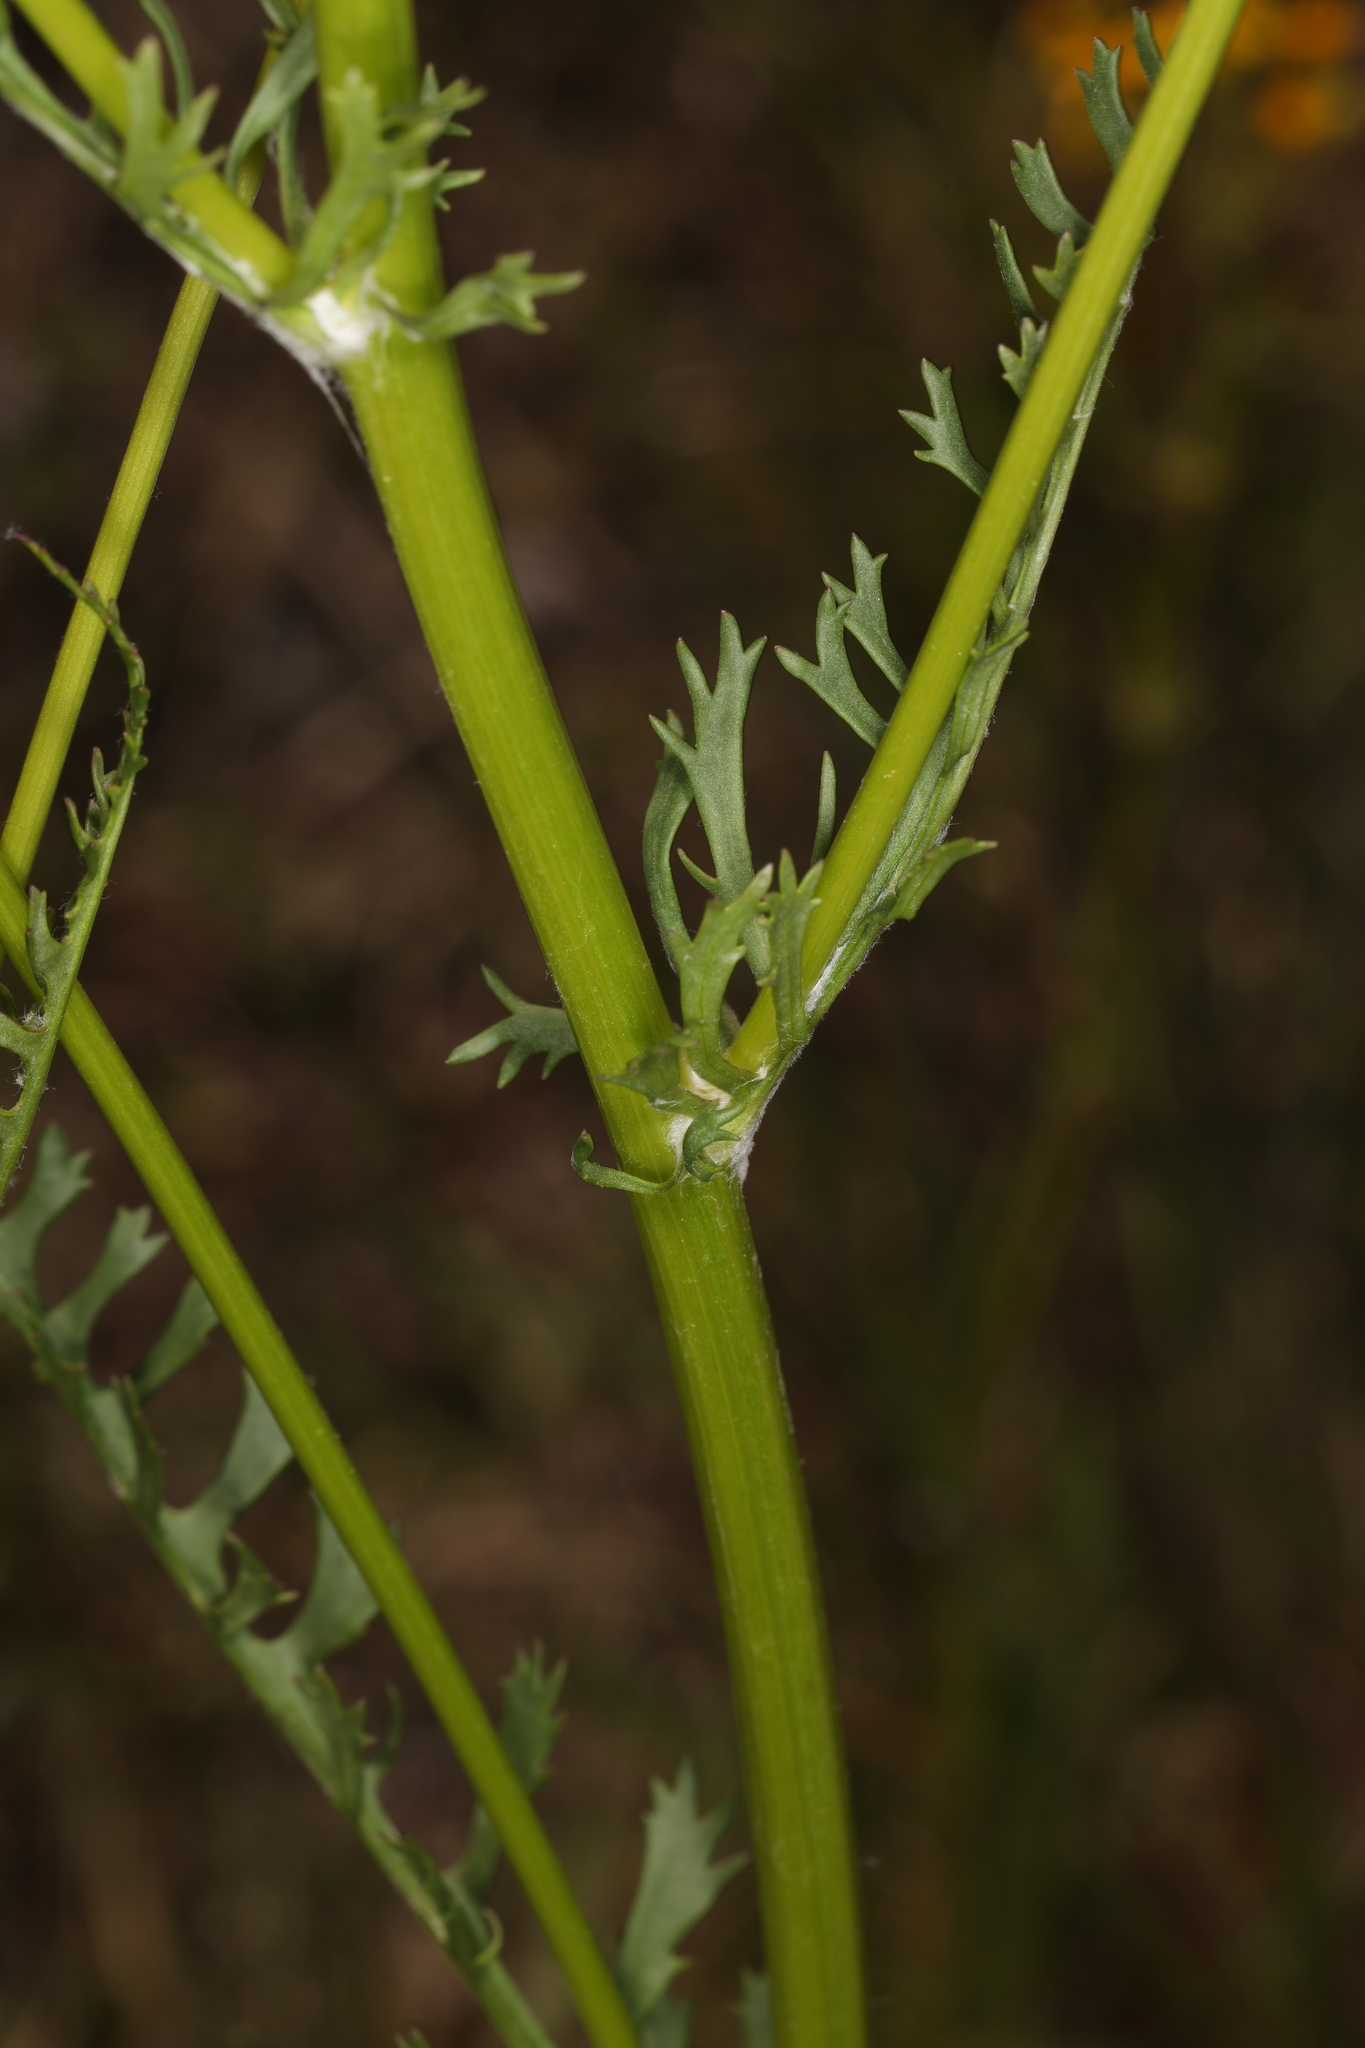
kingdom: Plantae
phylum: Tracheophyta
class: Magnoliopsida
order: Asterales
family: Asteraceae
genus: Packera
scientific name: Packera anonyma
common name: Small ragwort
